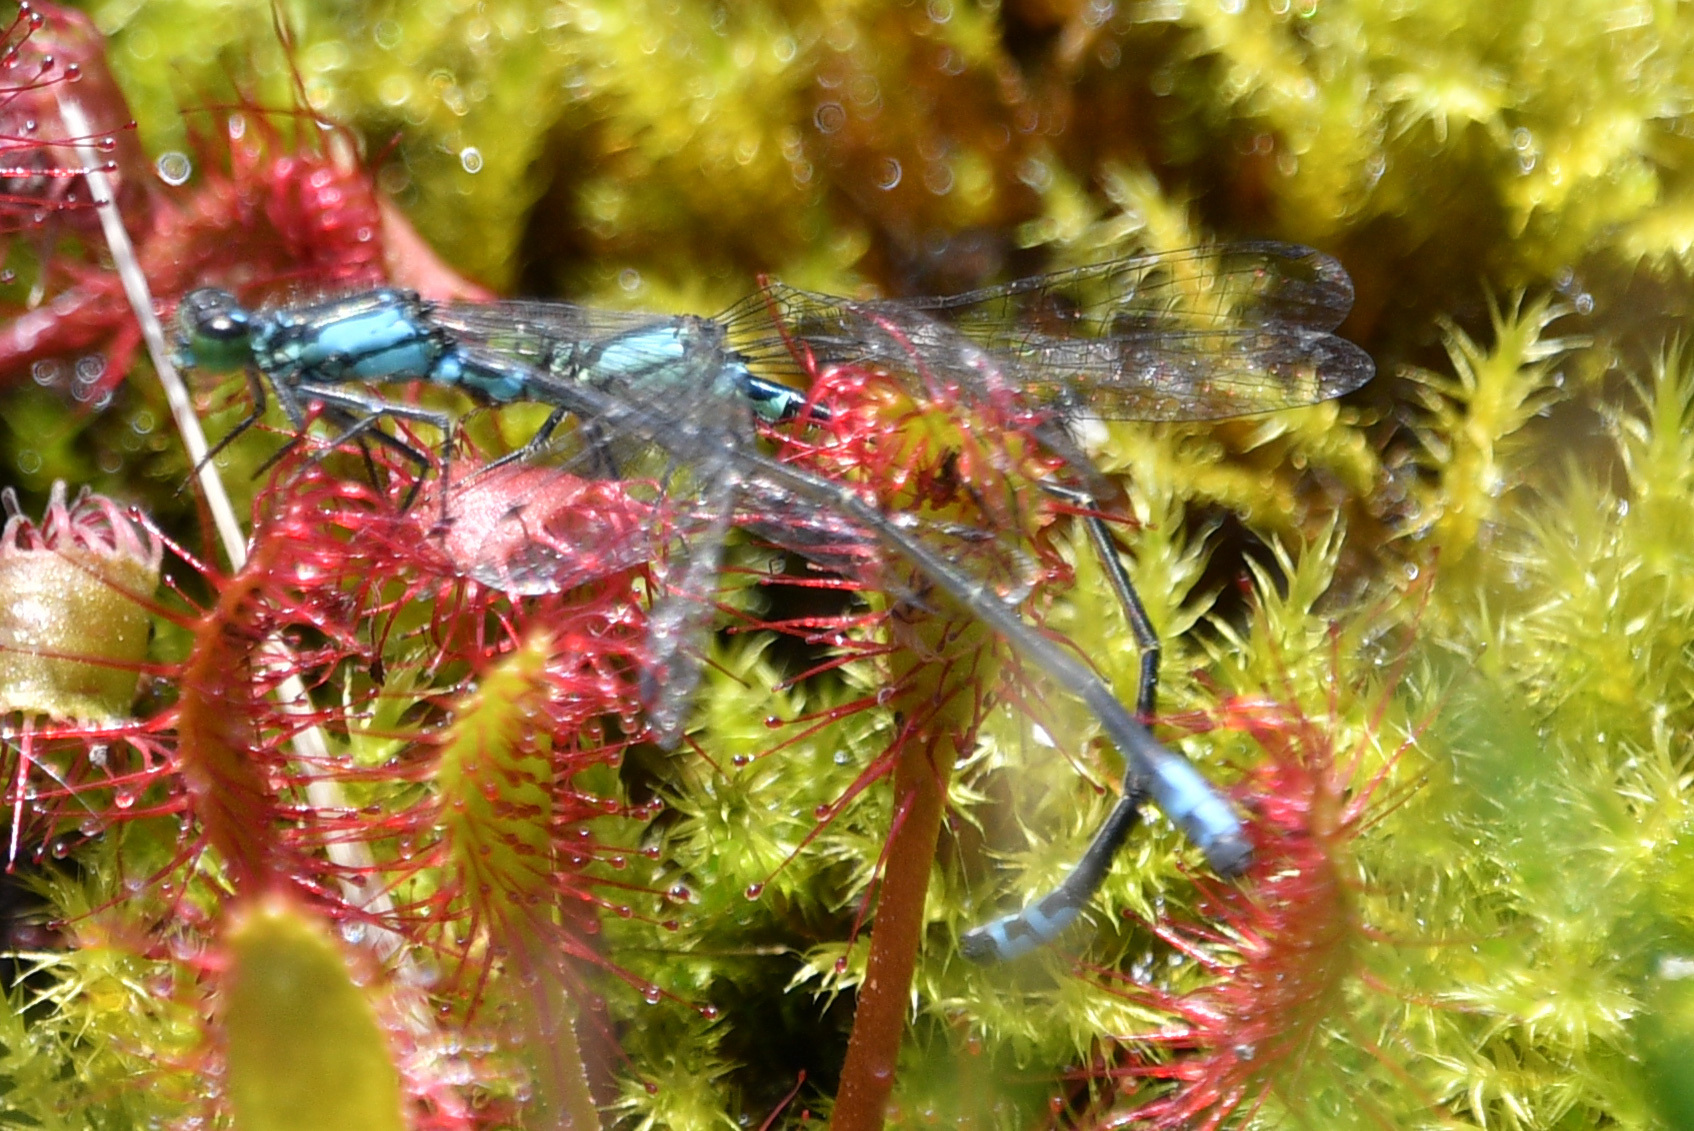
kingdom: Plantae
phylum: Tracheophyta
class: Magnoliopsida
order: Caryophyllales
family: Droseraceae
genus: Drosera
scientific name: Drosera anglica
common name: Great sundew
